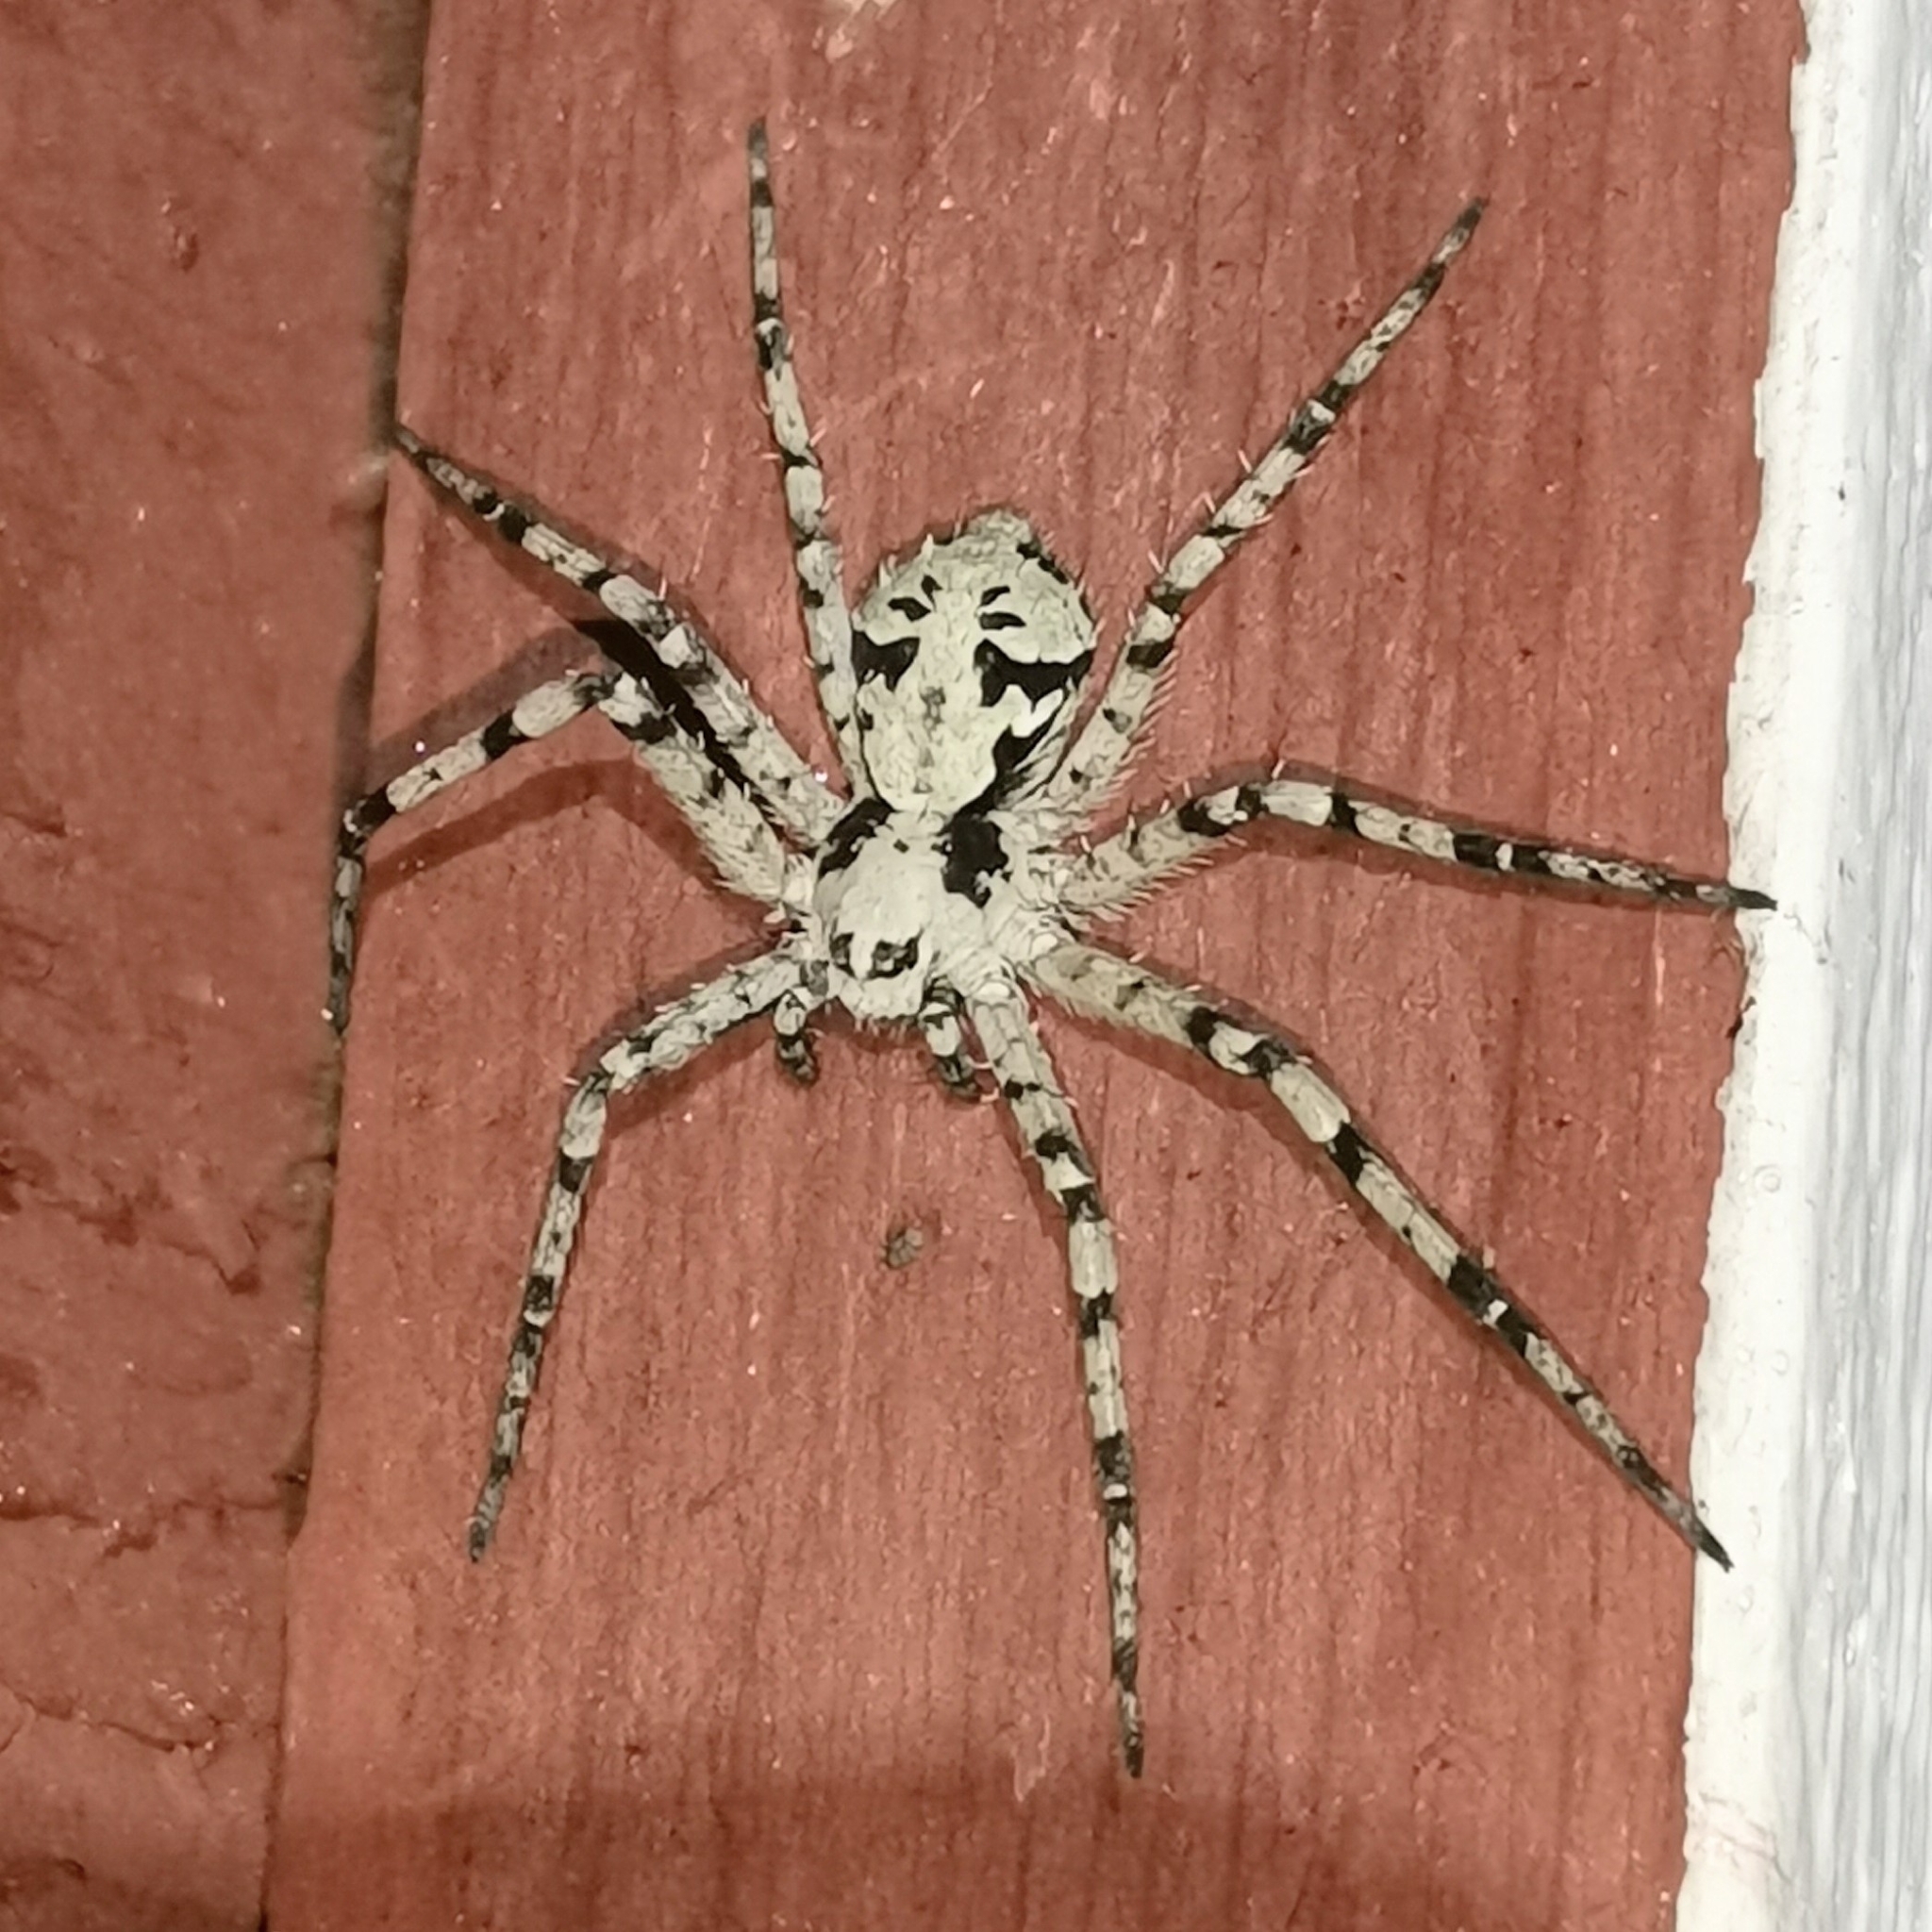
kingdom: Animalia
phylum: Arthropoda
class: Arachnida
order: Araneae
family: Philodromidae
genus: Philodromus
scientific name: Philodromus margaritatus
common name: Lichen running-spider
